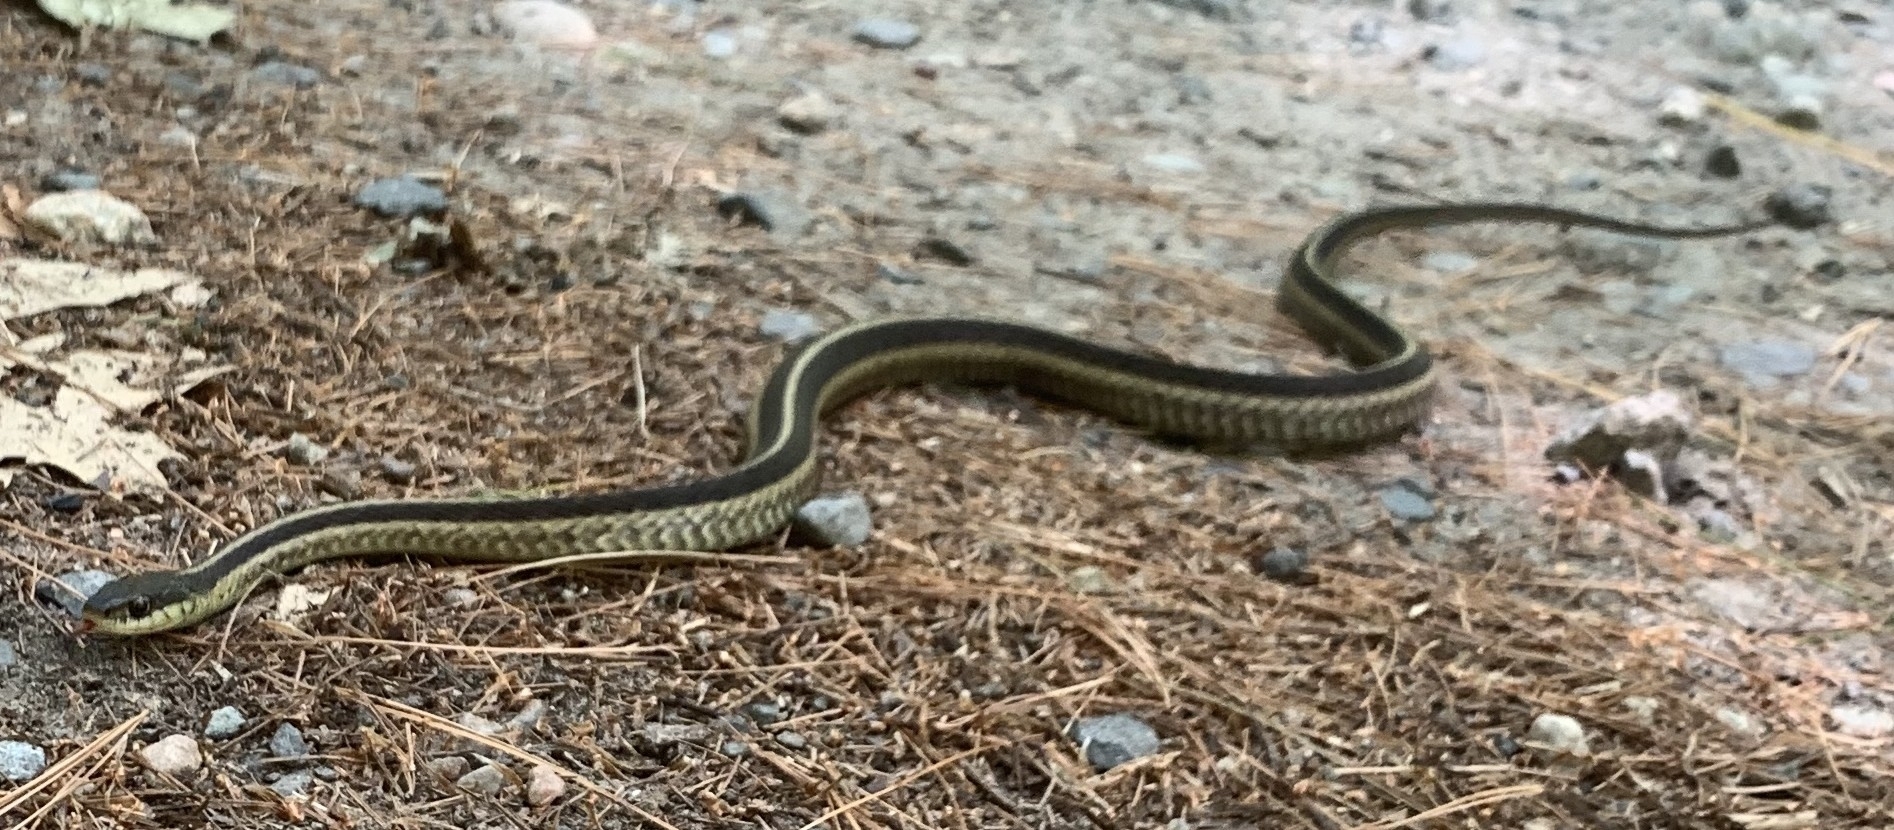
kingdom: Animalia
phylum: Chordata
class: Squamata
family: Colubridae
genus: Thamnophis
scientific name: Thamnophis sirtalis
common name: Common garter snake
